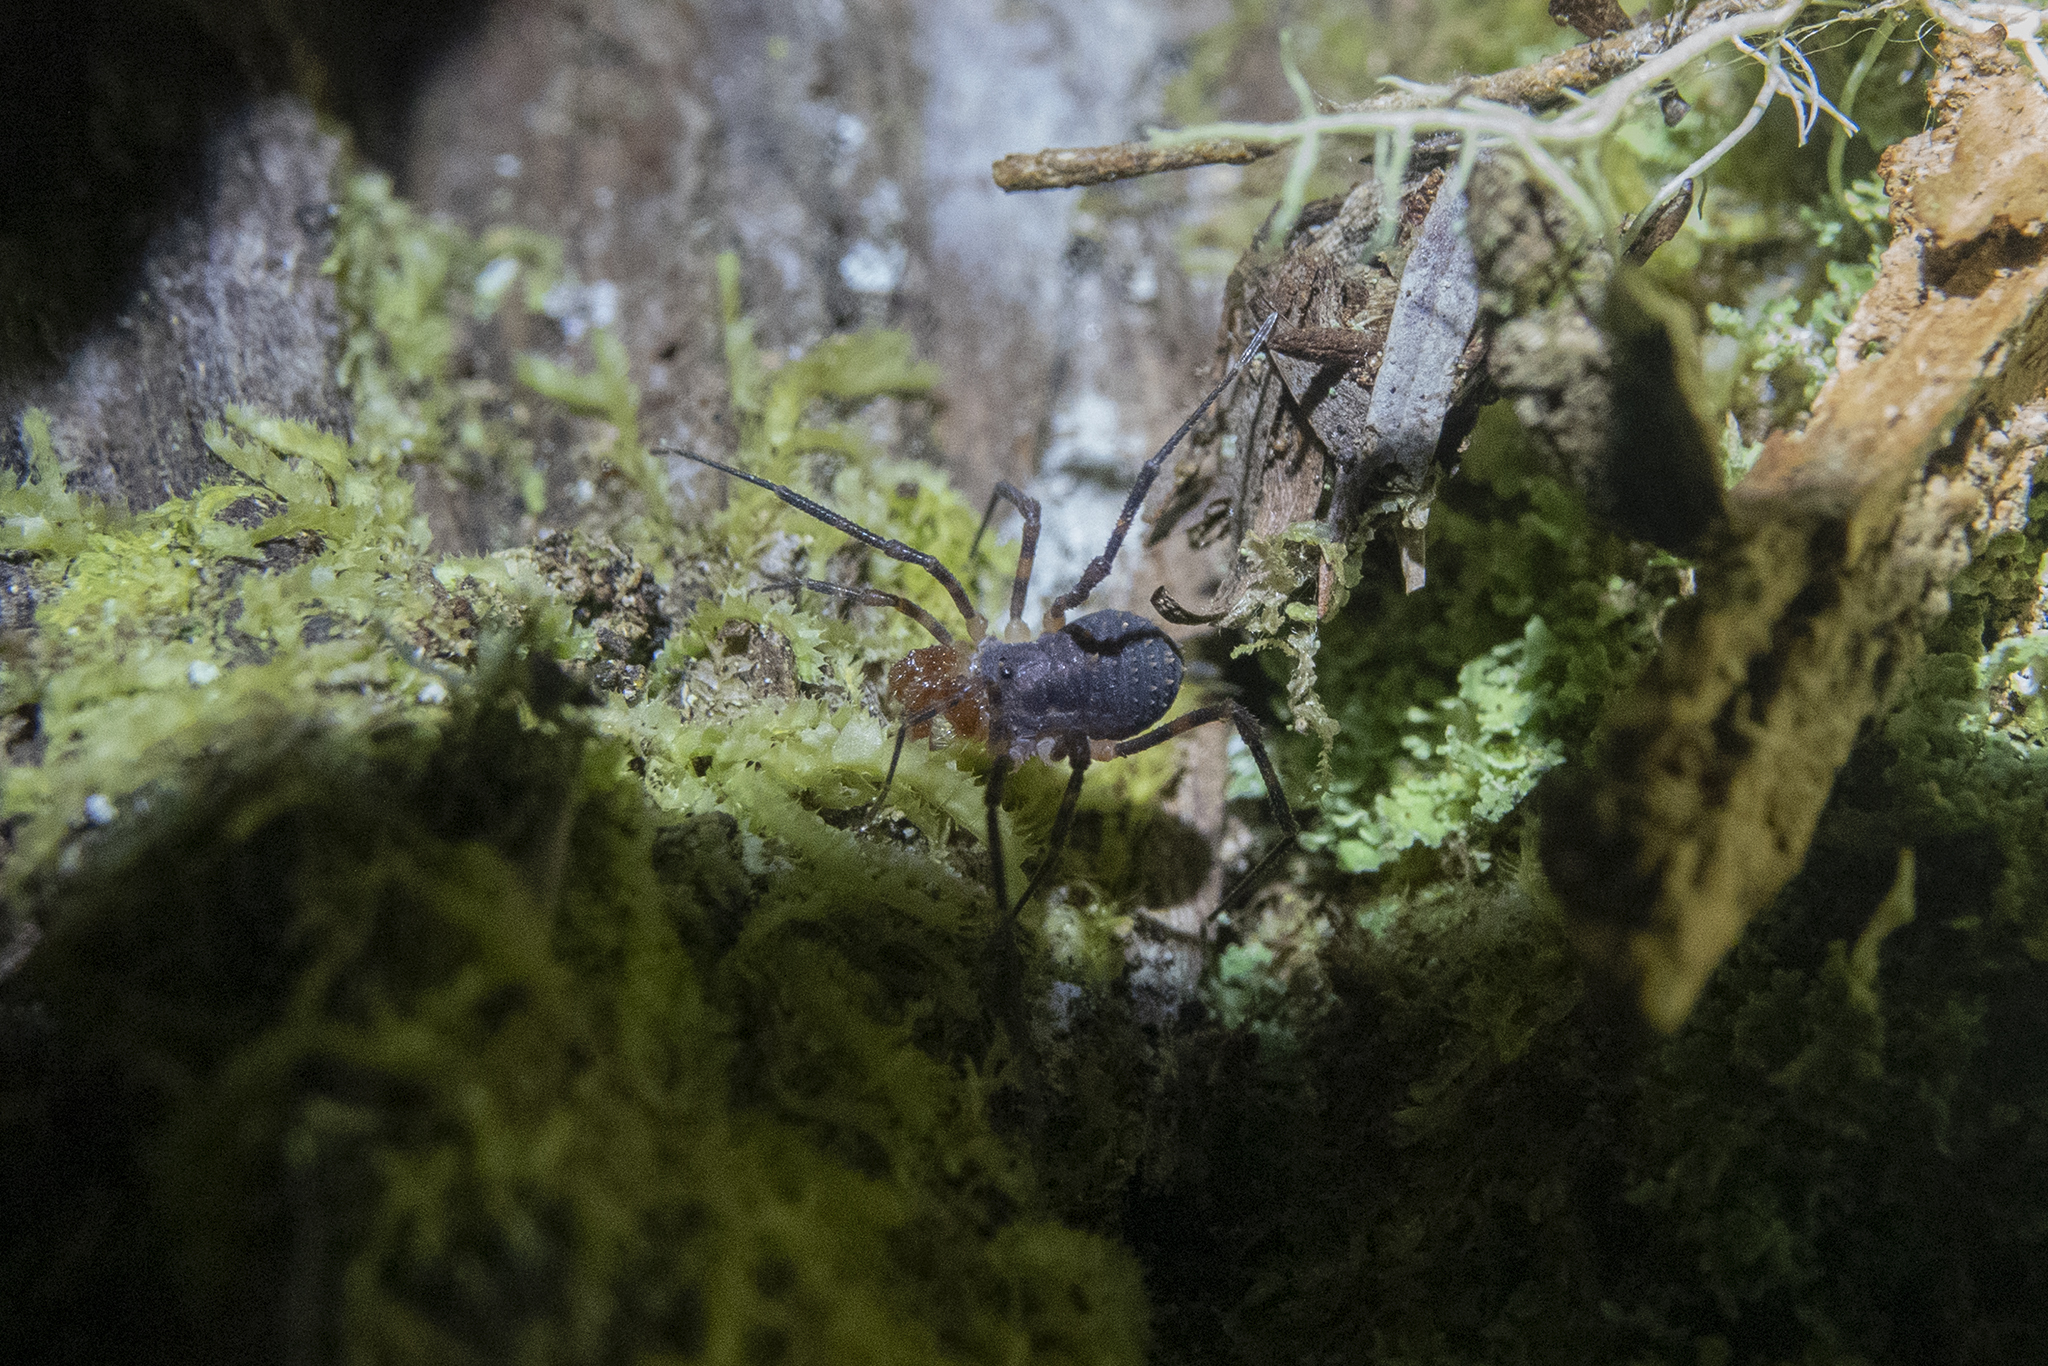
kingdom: Animalia
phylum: Arthropoda
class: Arachnida
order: Opiliones
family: Triaenonychidae
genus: Prasma
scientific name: Prasma tuberculata
